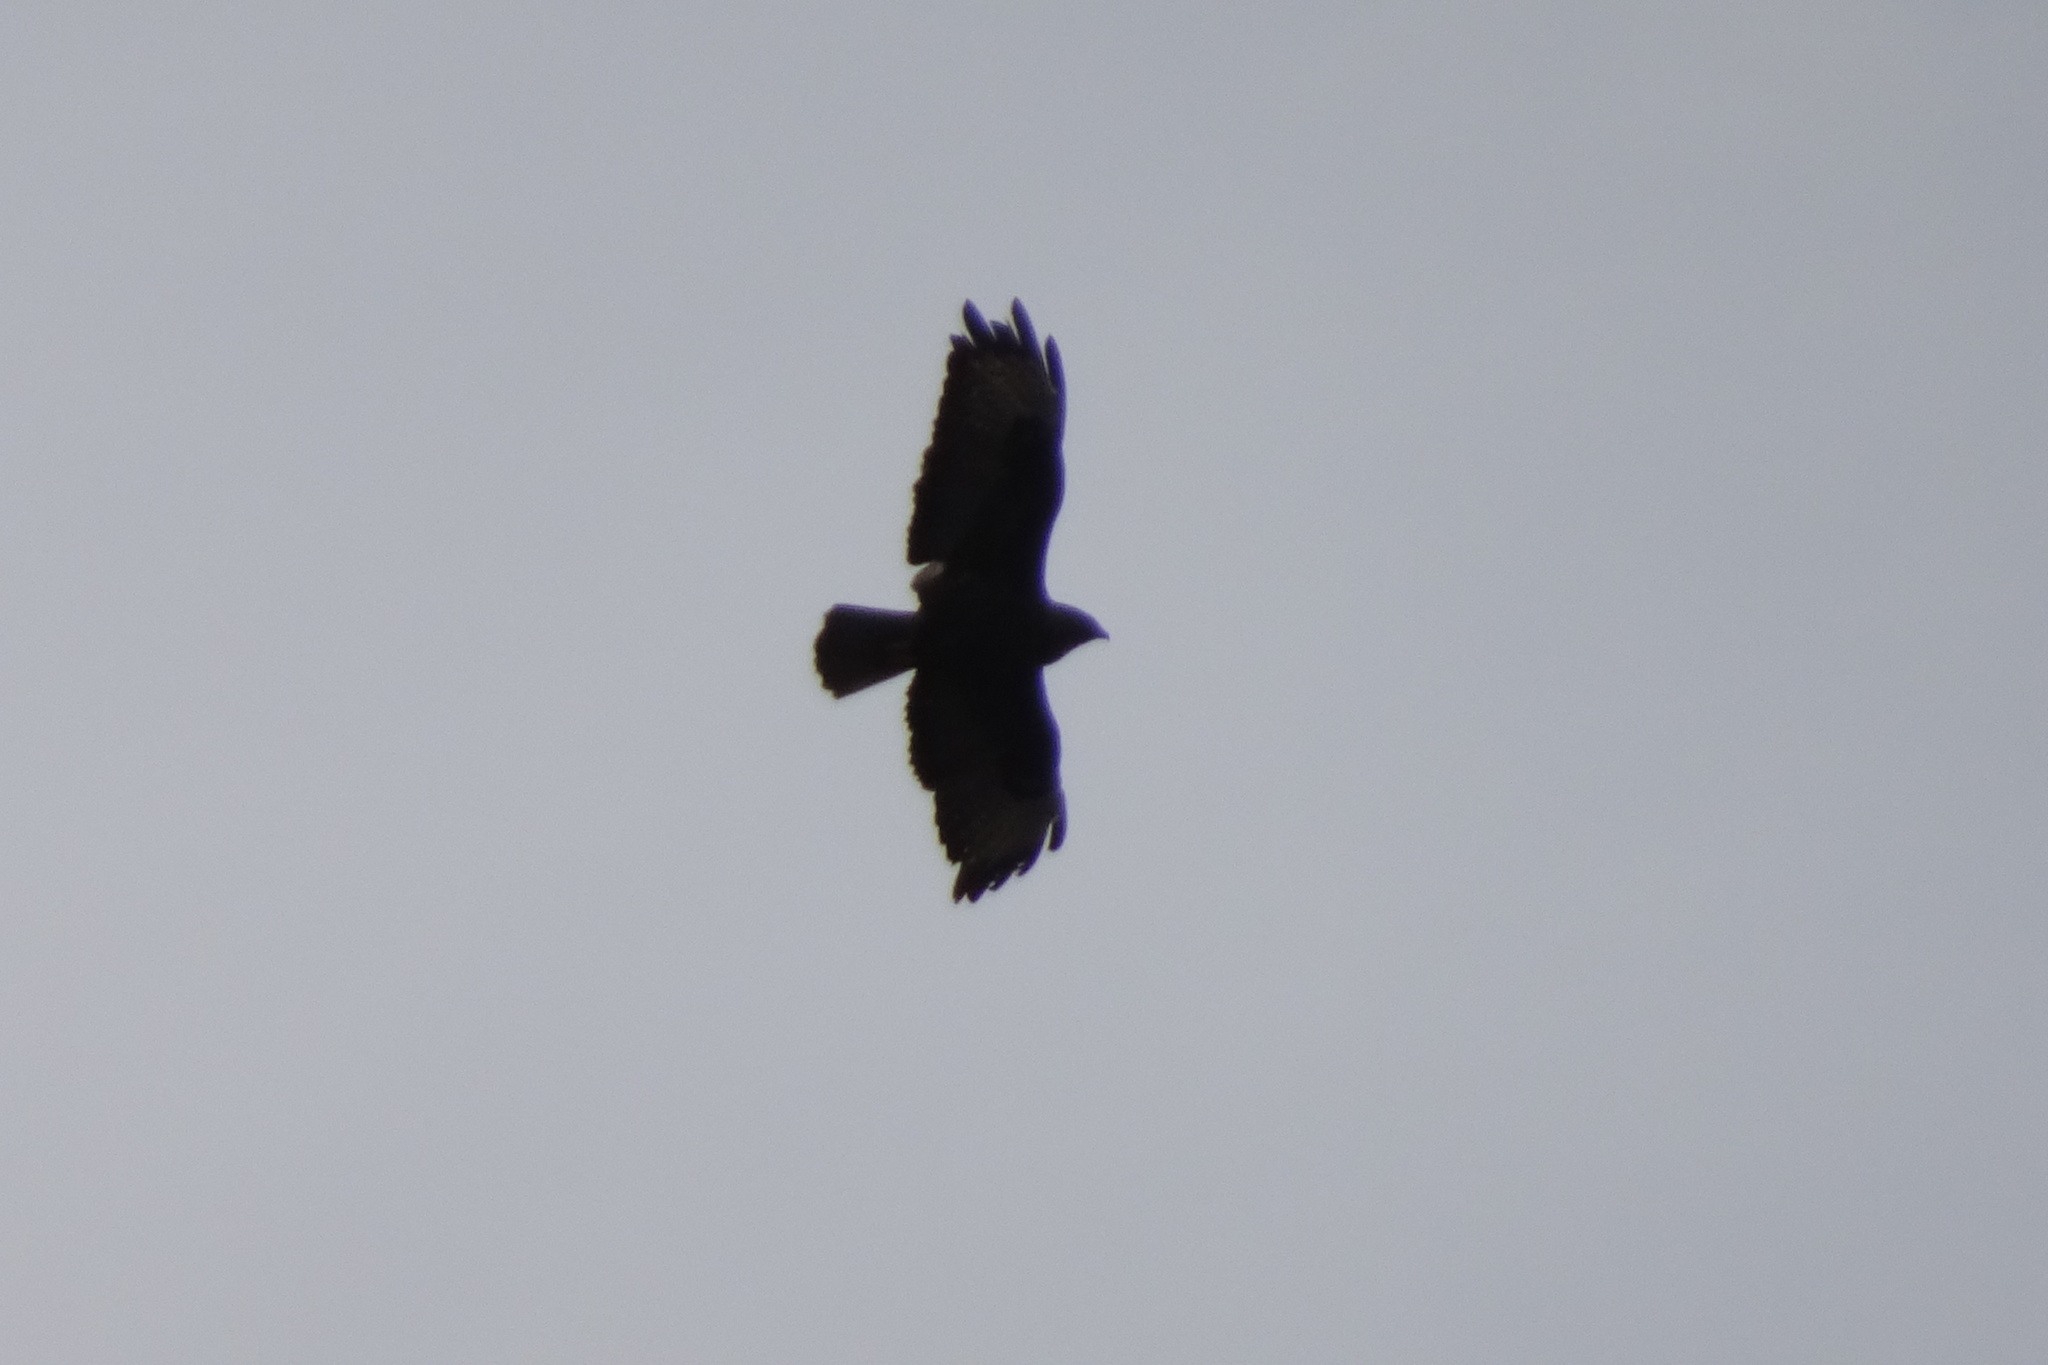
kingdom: Animalia
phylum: Chordata
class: Aves
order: Accipitriformes
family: Accipitridae
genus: Buteo
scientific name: Buteo buteo
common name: Common buzzard
